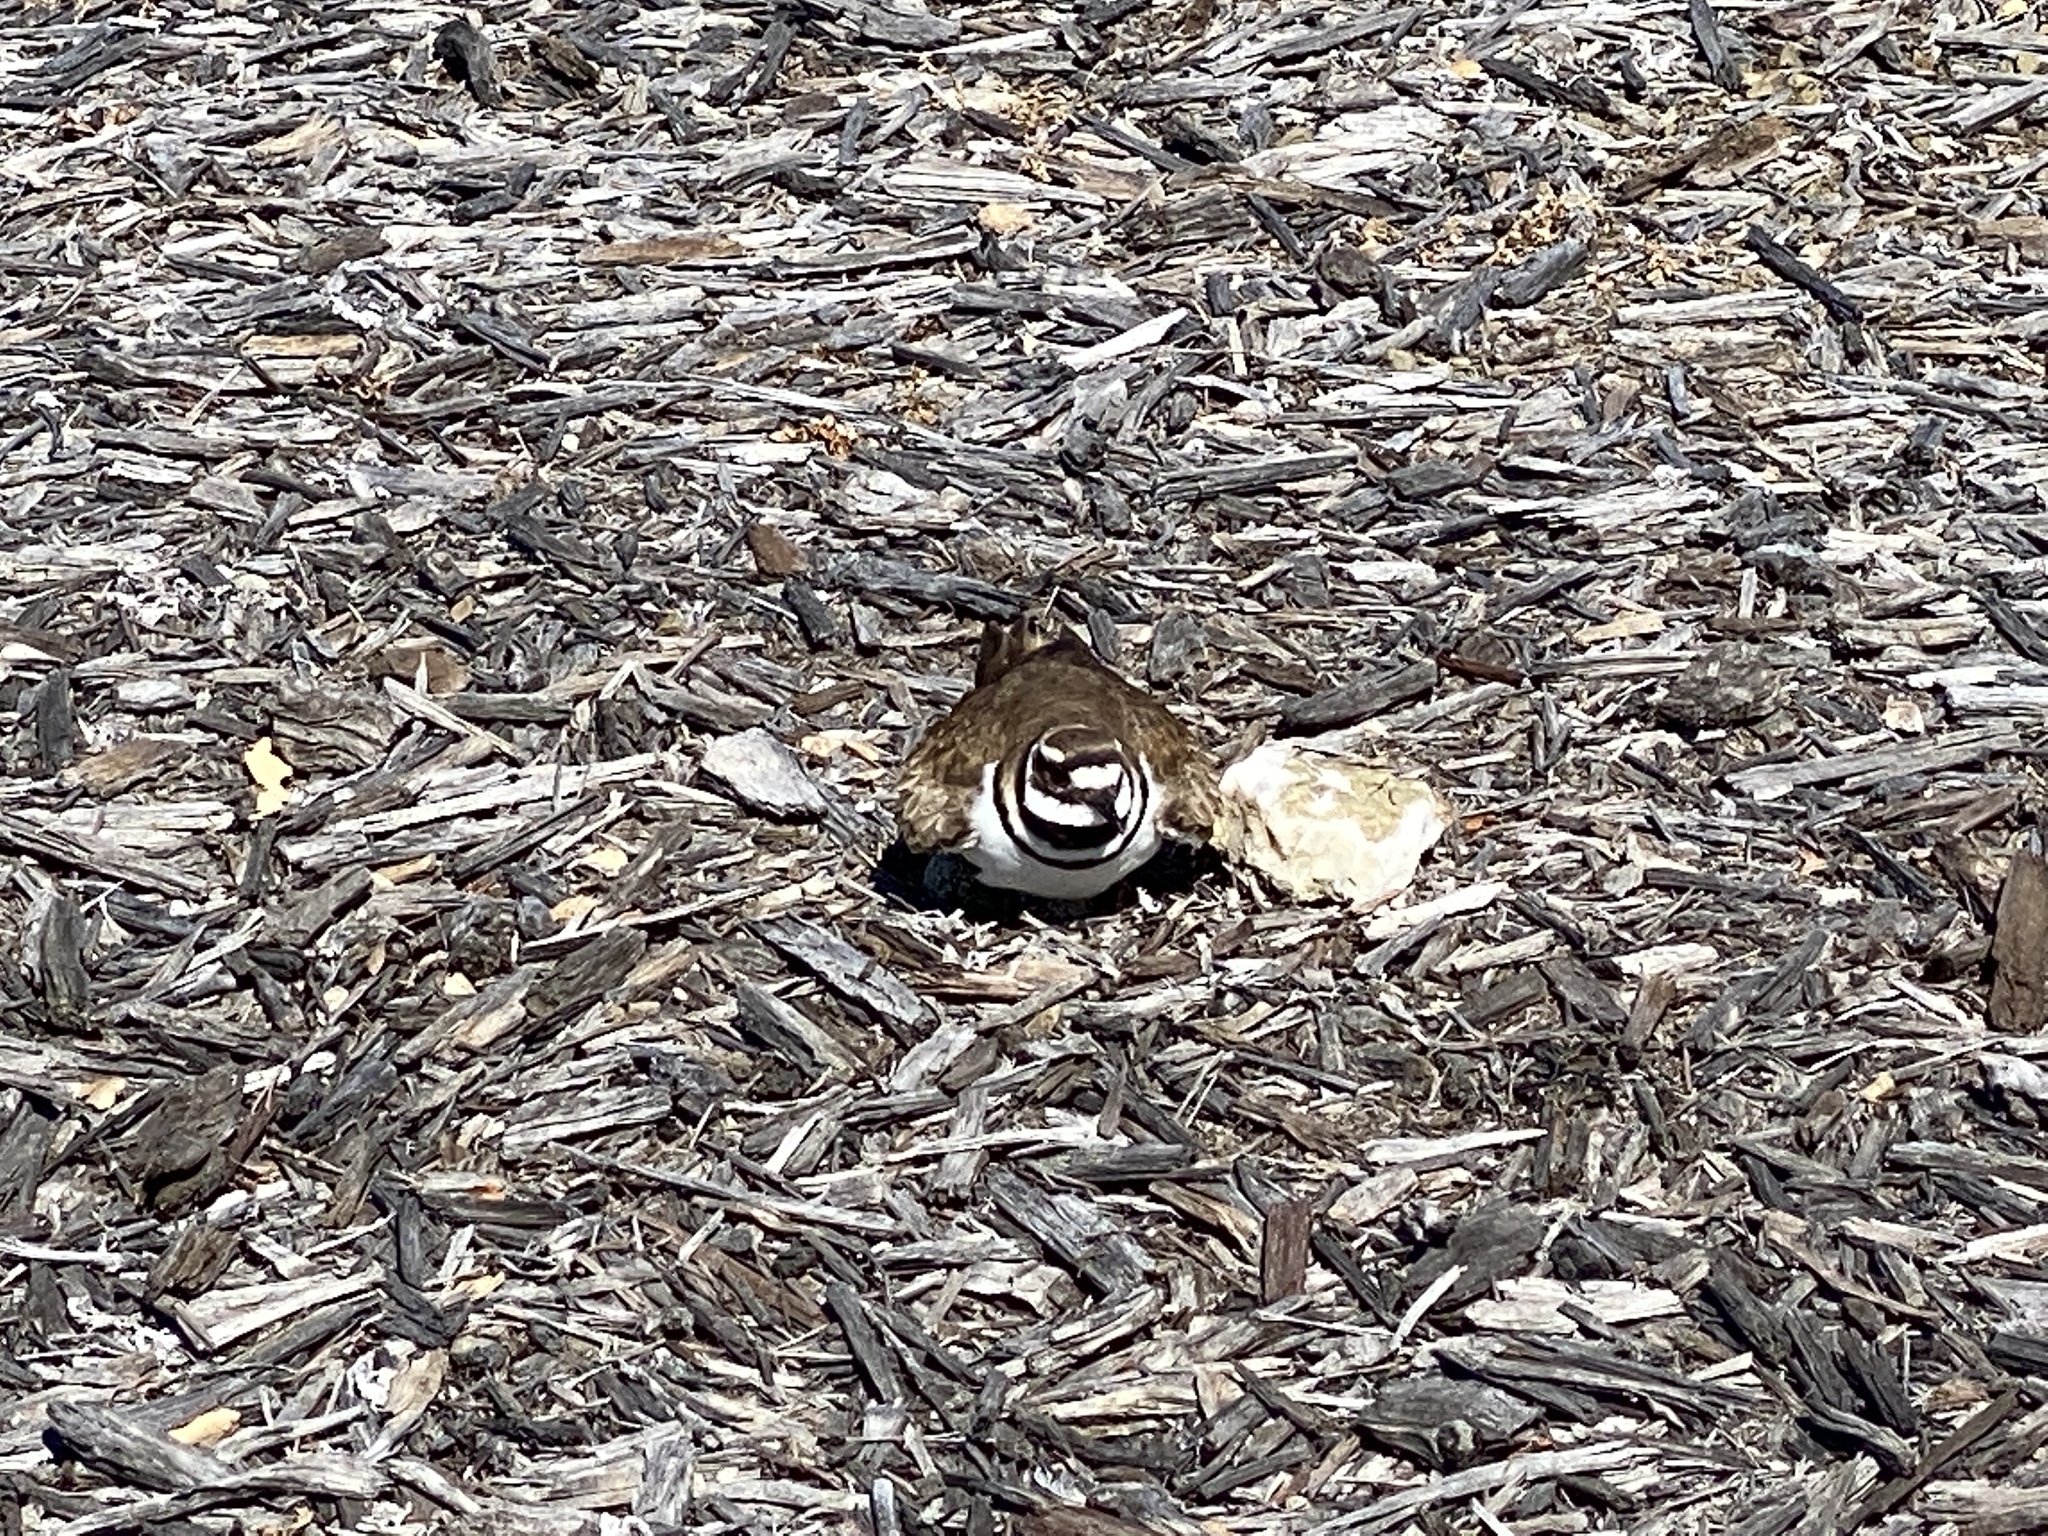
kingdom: Animalia
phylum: Chordata
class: Aves
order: Charadriiformes
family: Charadriidae
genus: Charadrius
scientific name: Charadrius vociferus
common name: Killdeer
